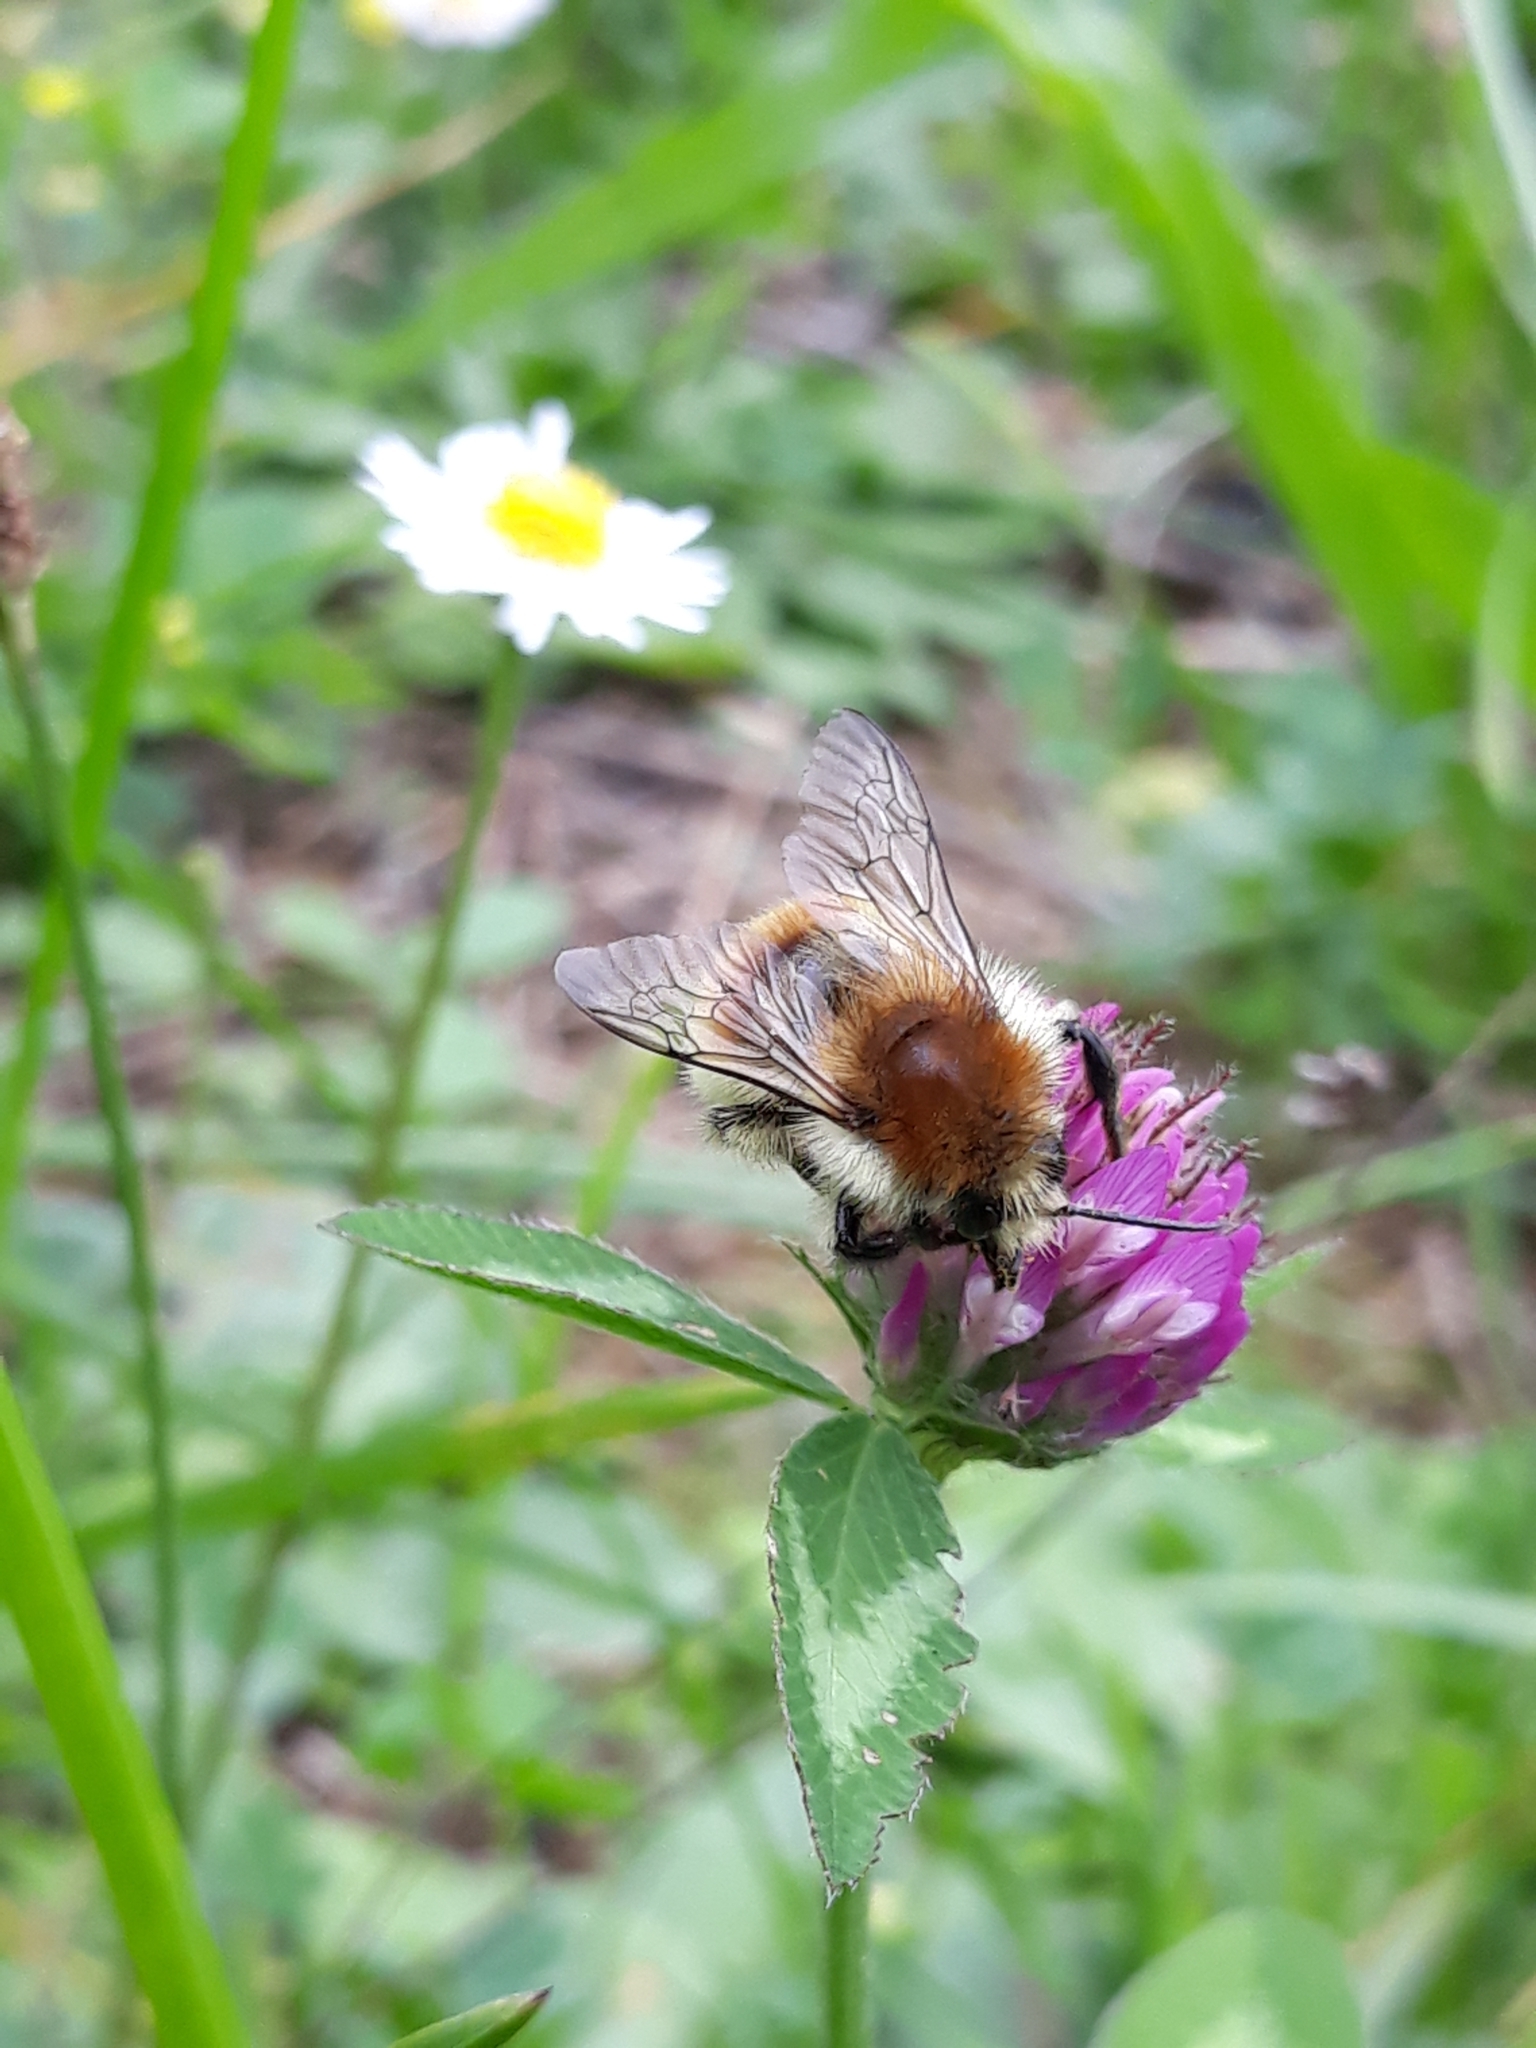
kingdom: Animalia
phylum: Arthropoda
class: Insecta
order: Hymenoptera
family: Apidae
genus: Bombus
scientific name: Bombus humilis
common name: Brown-banded carder-bee
